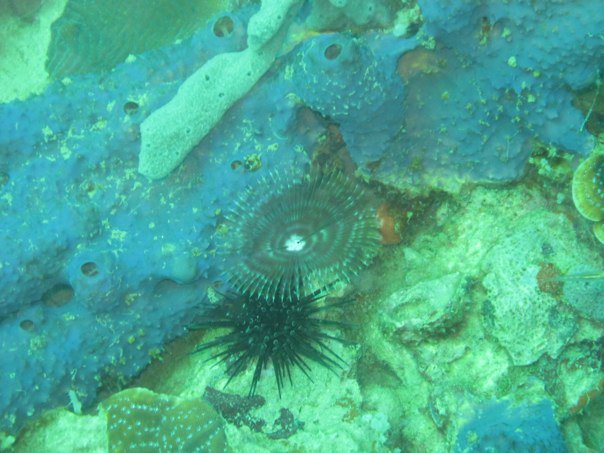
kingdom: Animalia
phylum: Porifera
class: Demospongiae
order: Verongiida
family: Aplysinidae
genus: Aiolochroia
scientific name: Aiolochroia crassa
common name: Branching tube sponge
